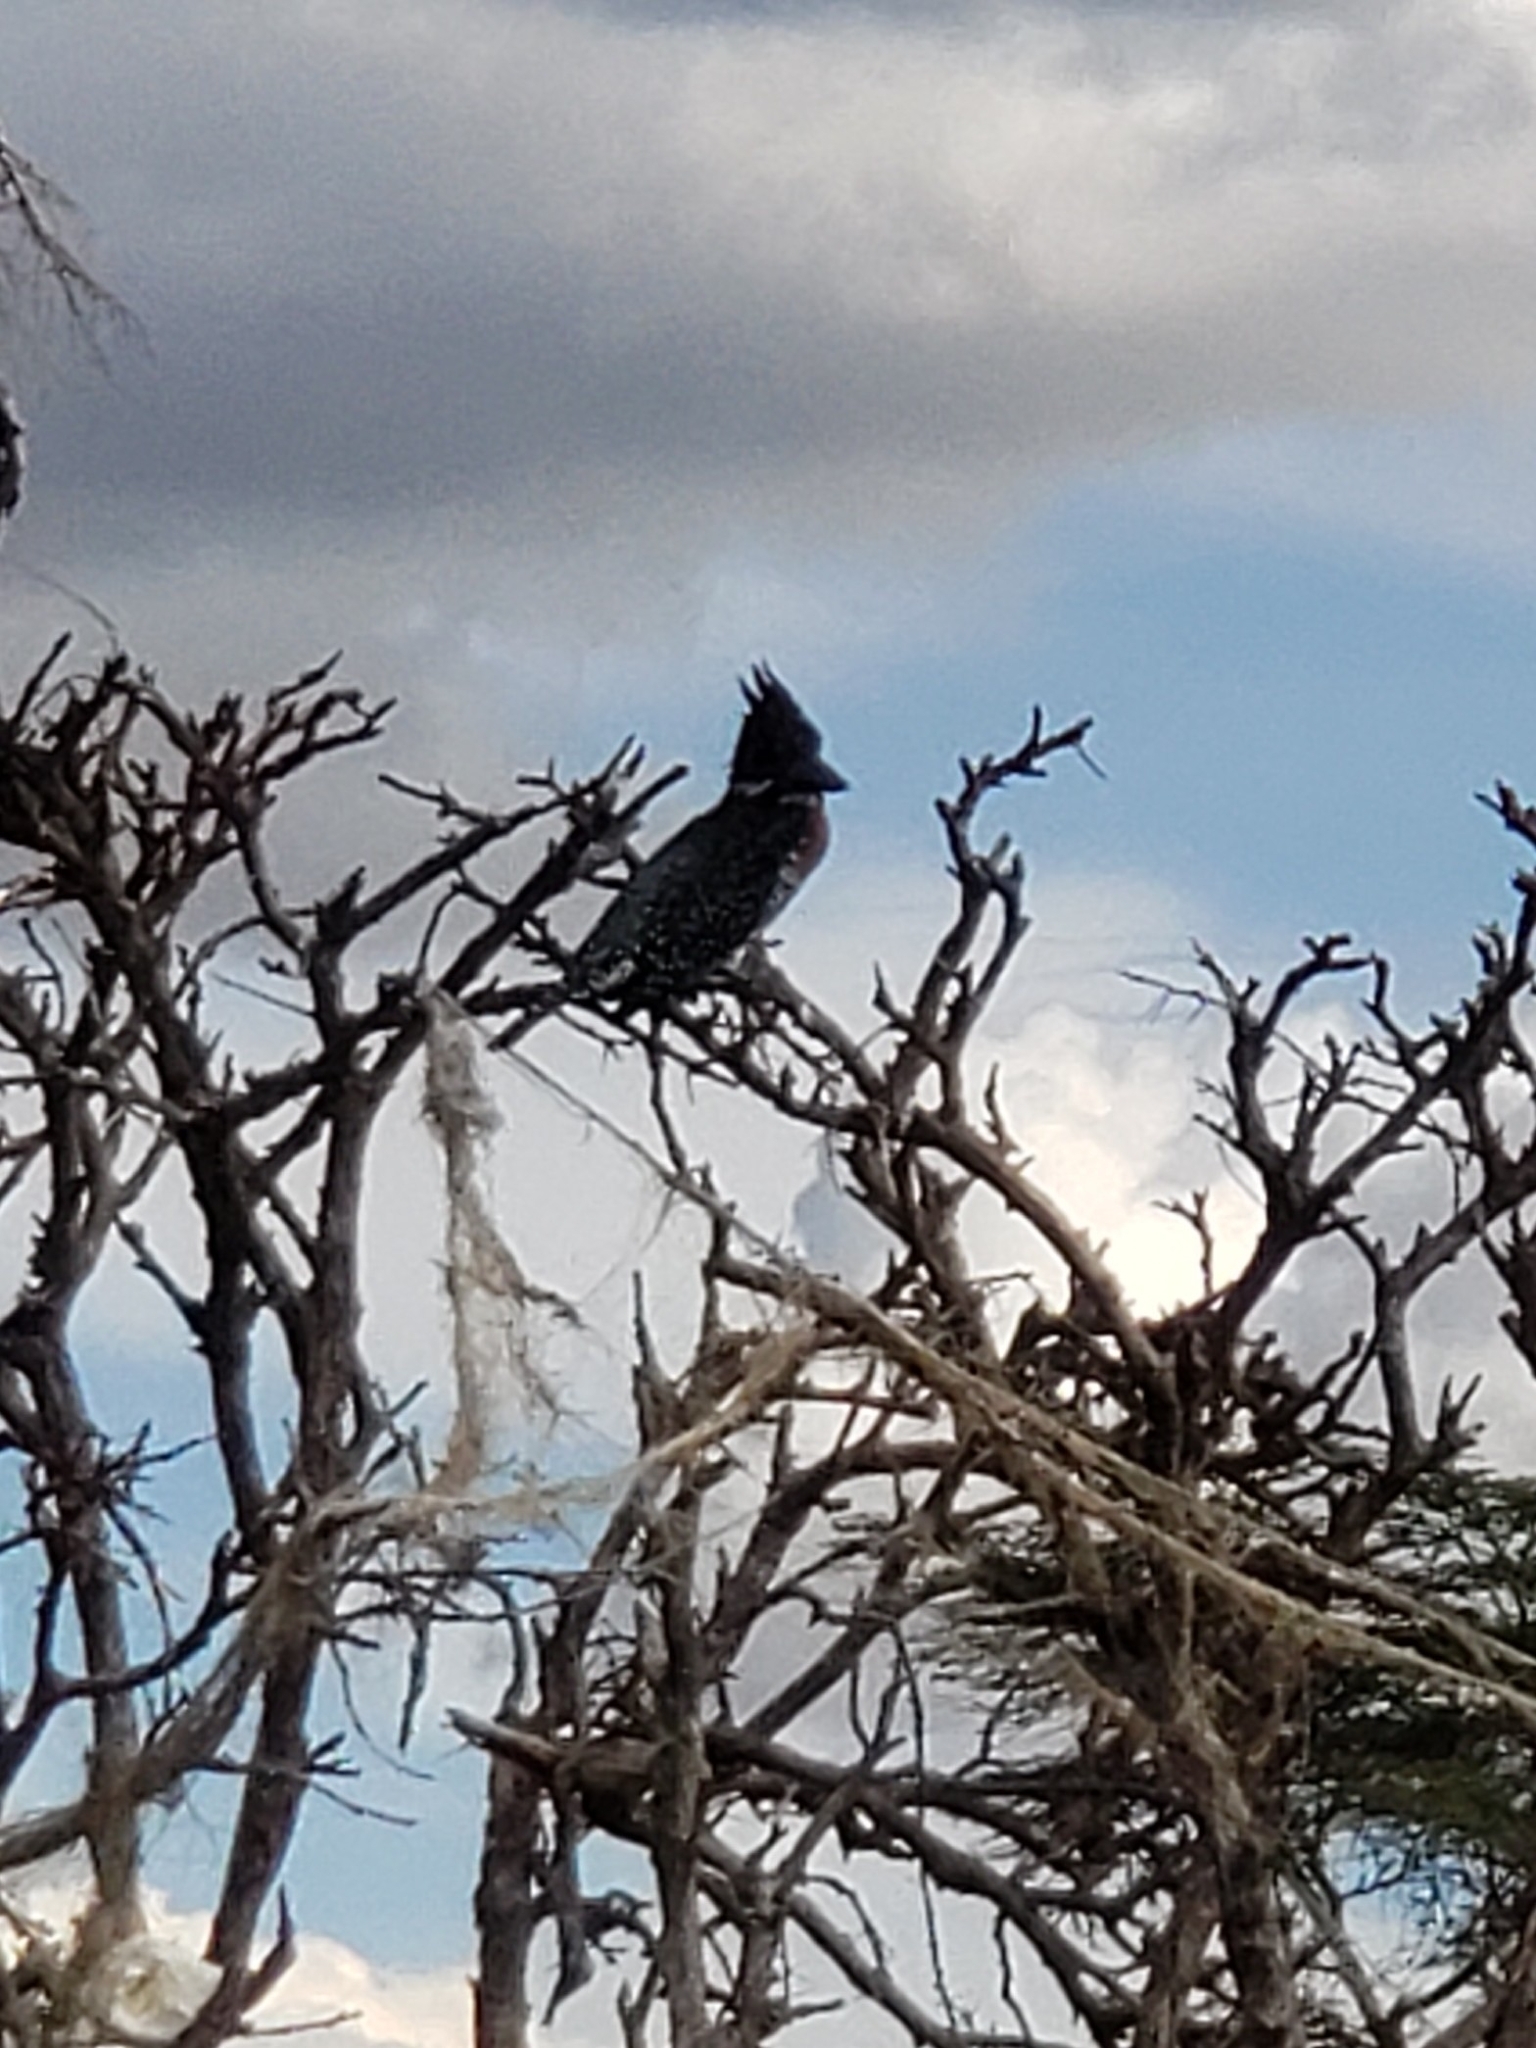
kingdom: Animalia
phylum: Chordata
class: Aves
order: Coraciiformes
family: Alcedinidae
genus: Megaceryle
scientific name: Megaceryle maxima
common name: Giant kingfisher
